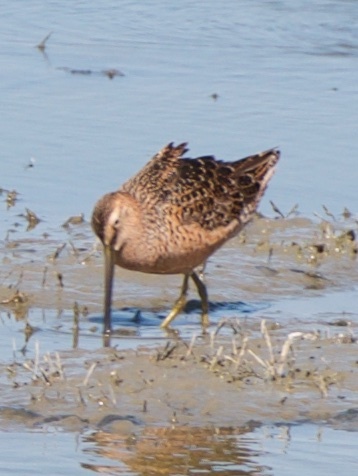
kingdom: Animalia
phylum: Chordata
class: Aves
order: Charadriiformes
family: Scolopacidae
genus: Limnodromus
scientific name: Limnodromus scolopaceus
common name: Long-billed dowitcher
